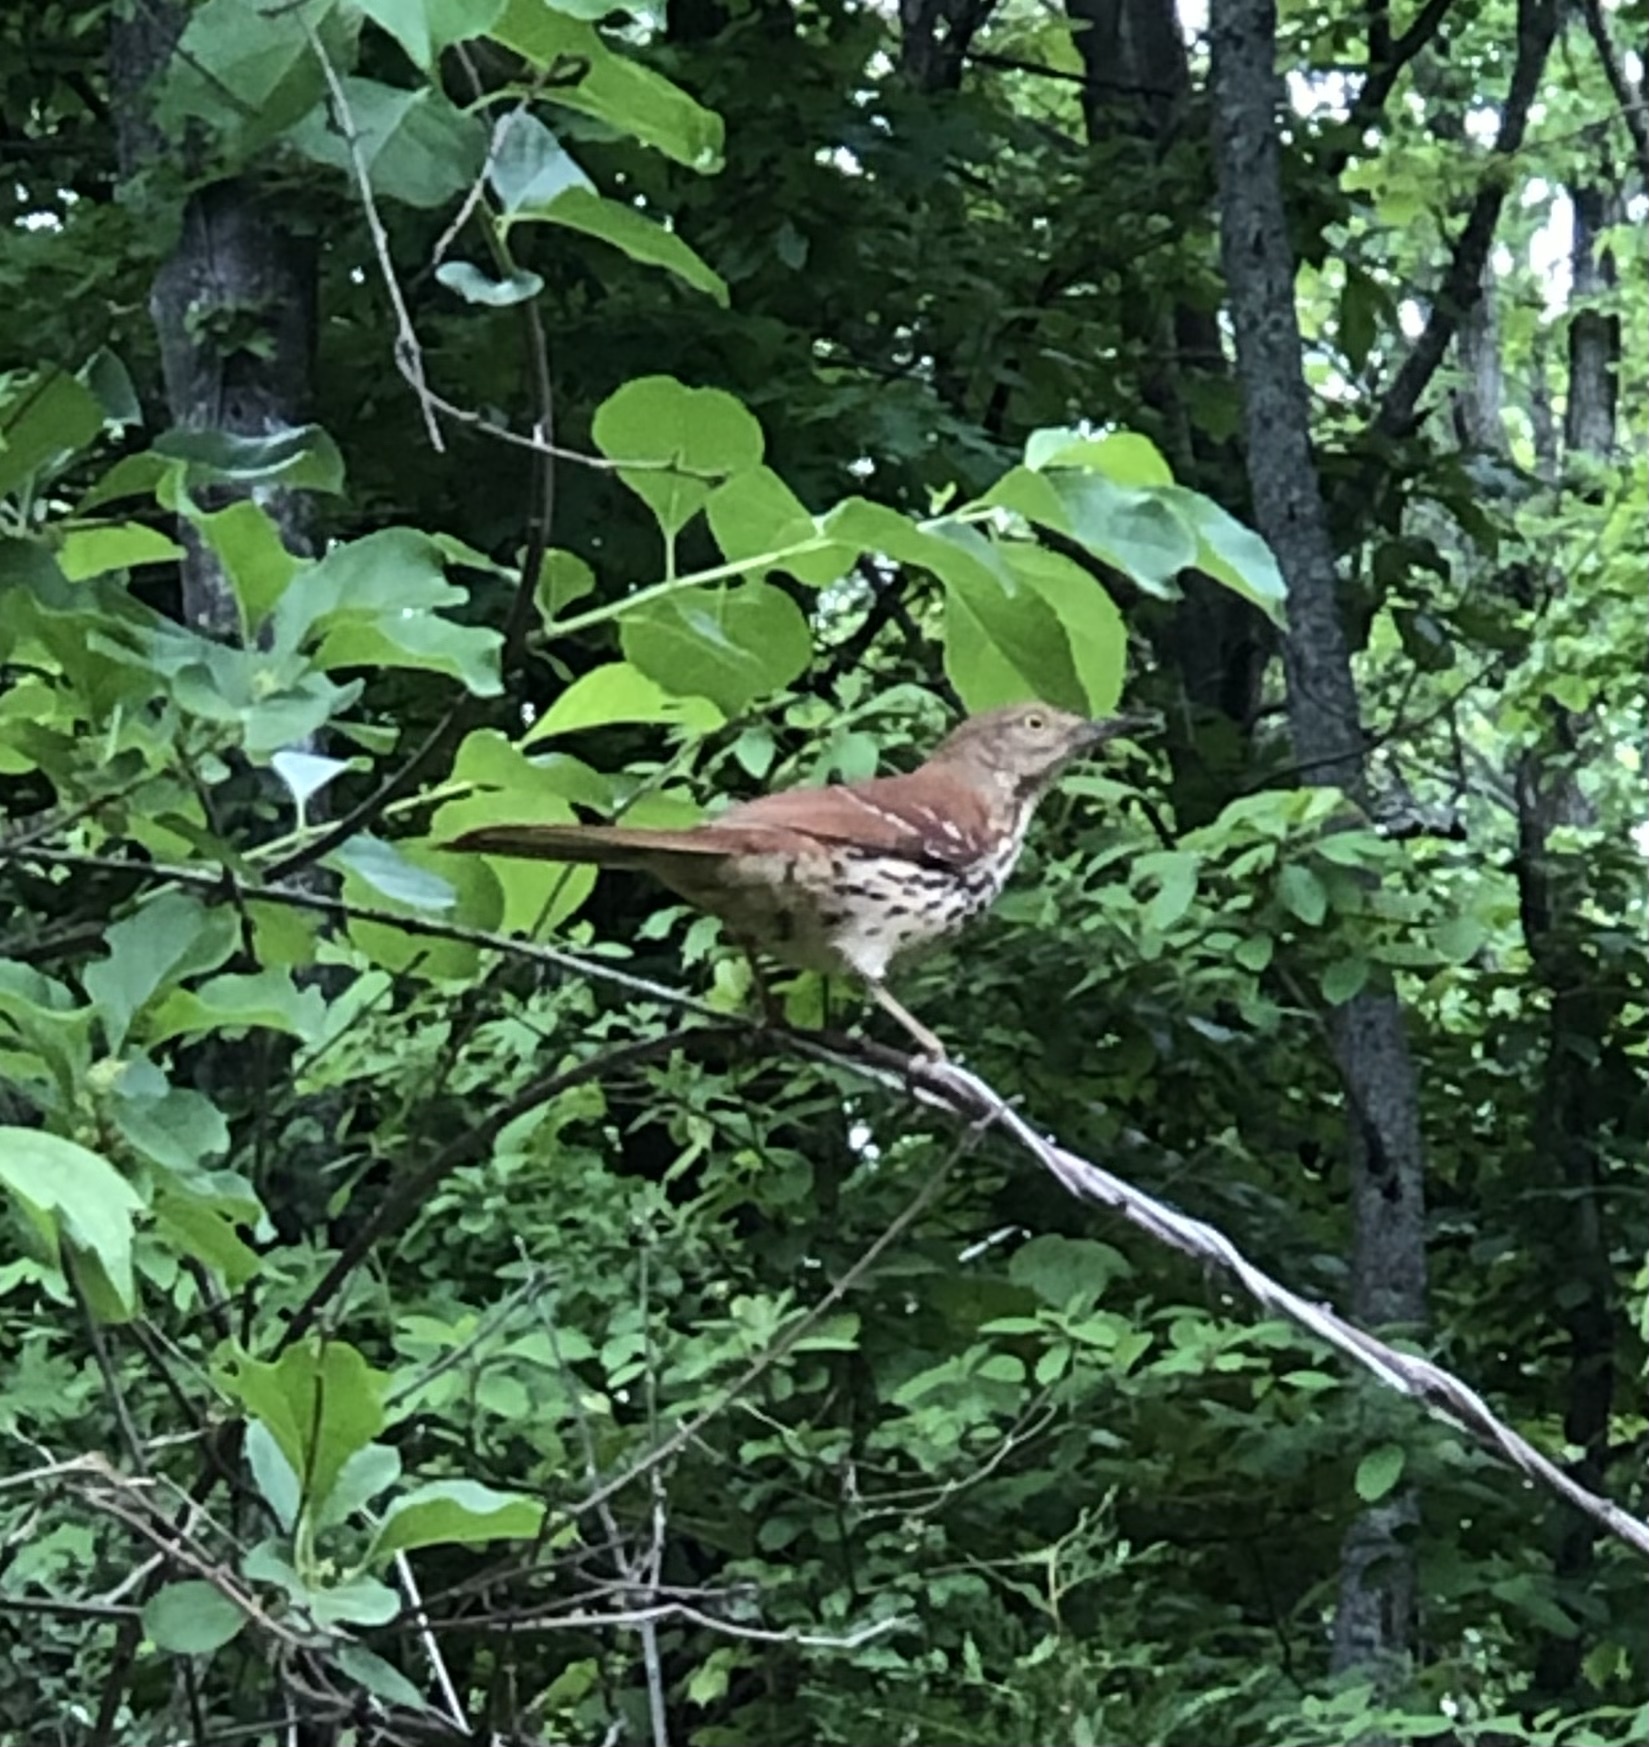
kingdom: Animalia
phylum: Chordata
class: Aves
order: Passeriformes
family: Mimidae
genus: Toxostoma
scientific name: Toxostoma rufum
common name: Brown thrasher
